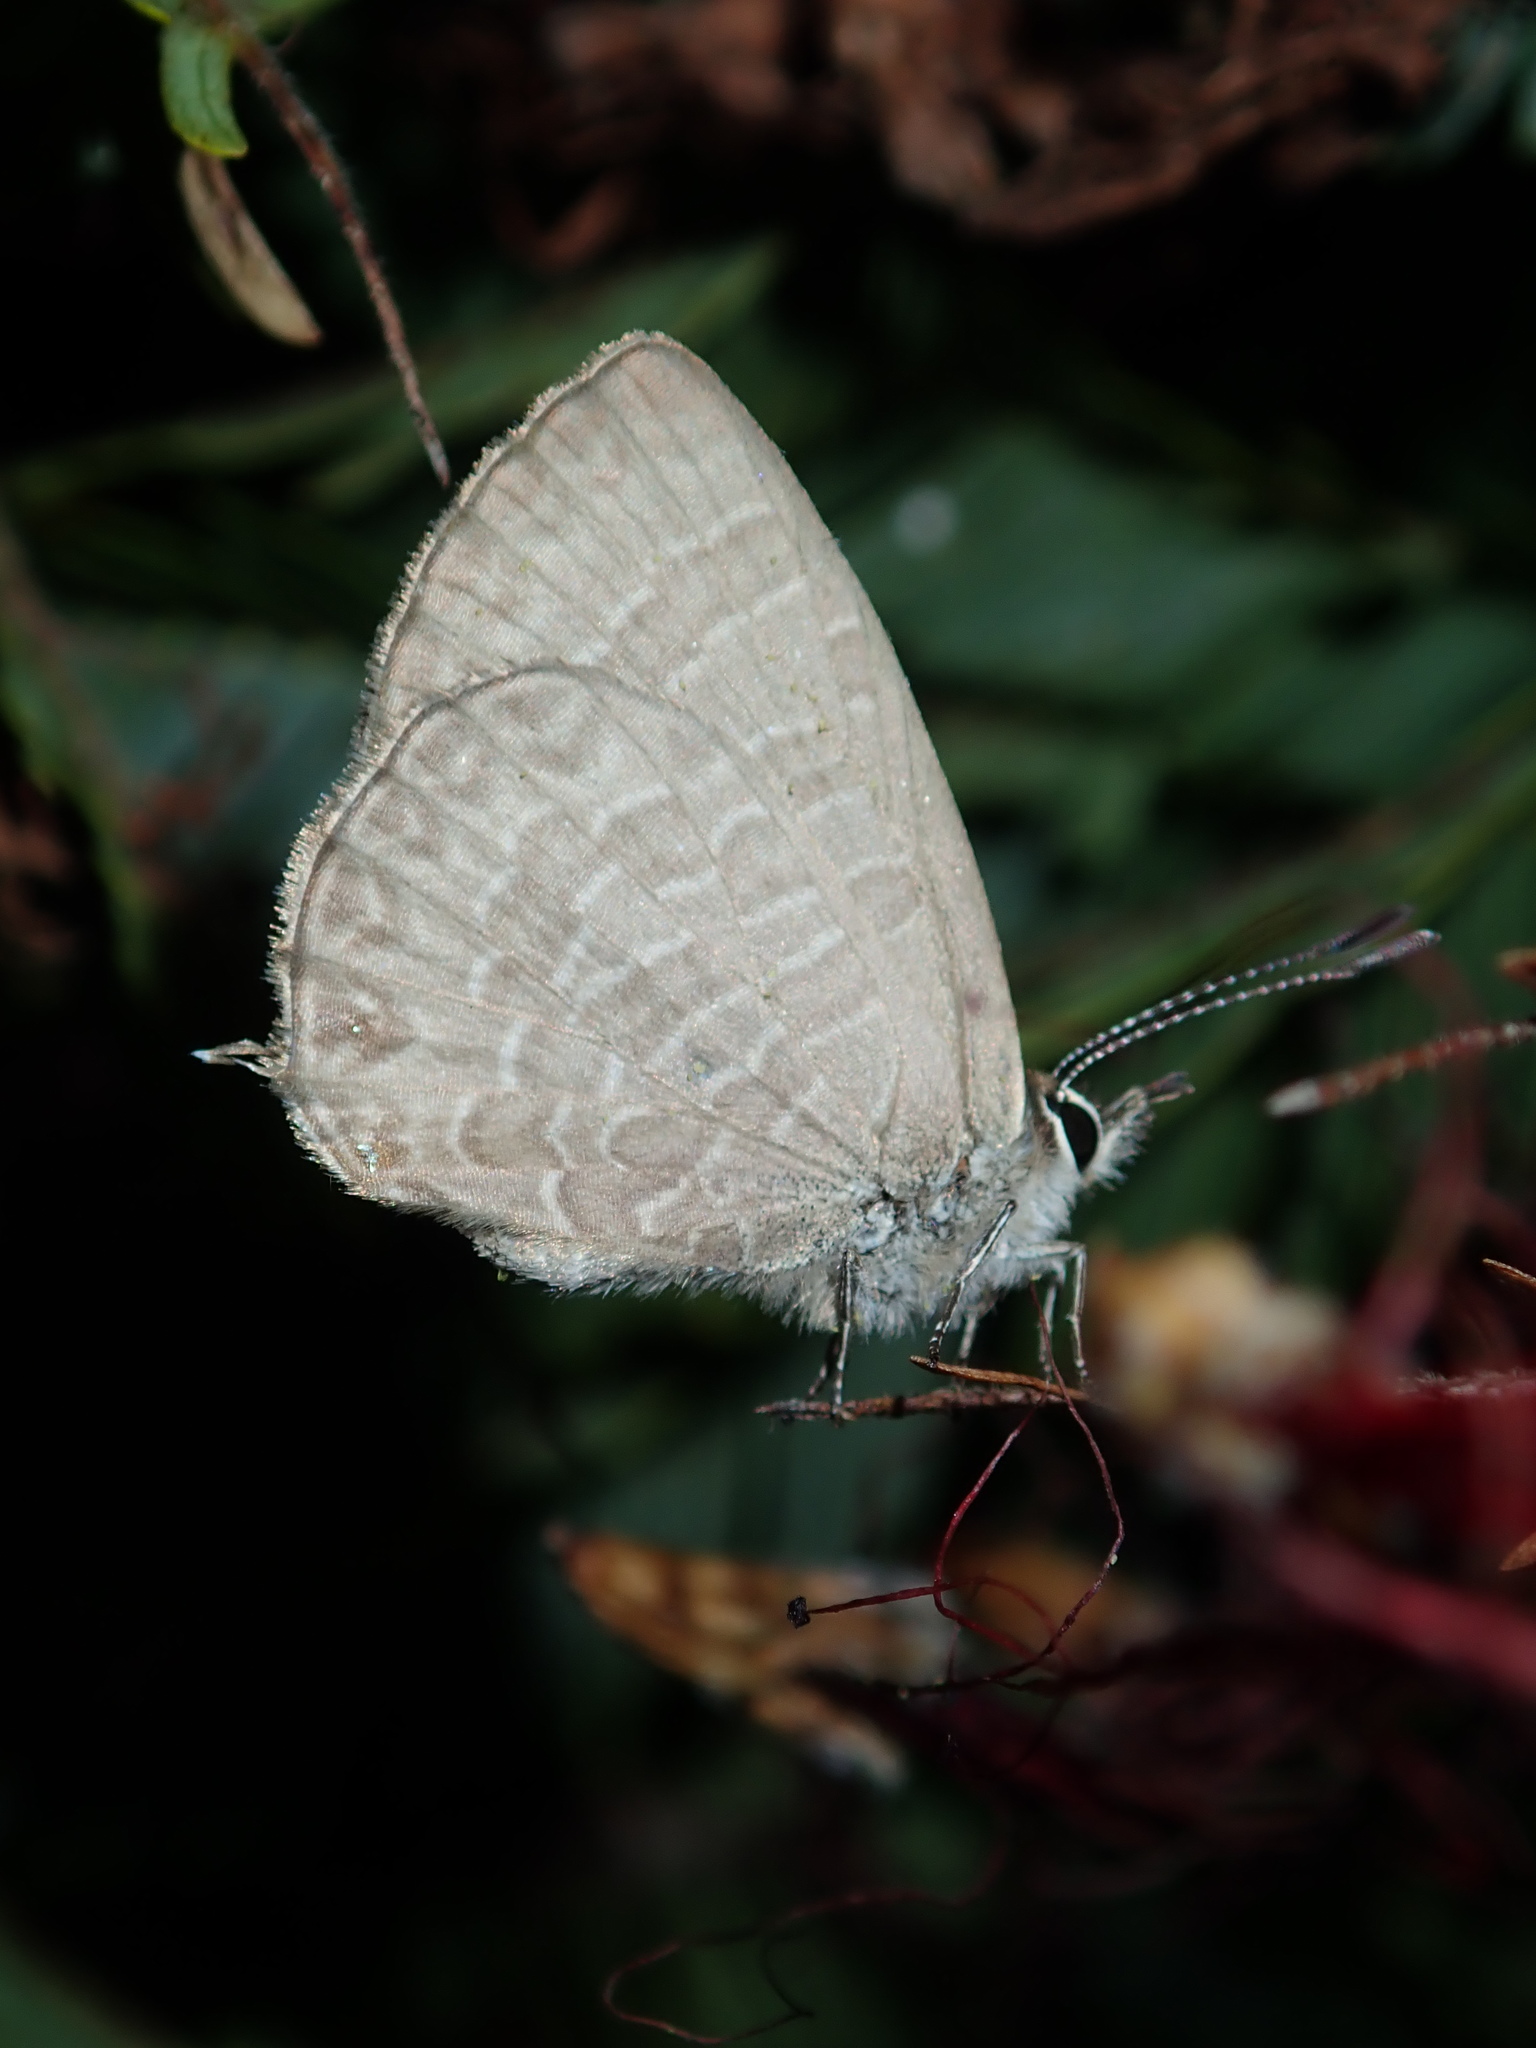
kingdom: Animalia
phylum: Arthropoda
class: Insecta
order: Lepidoptera
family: Lycaenidae
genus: Nacaduba
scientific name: Nacaduba berenice
